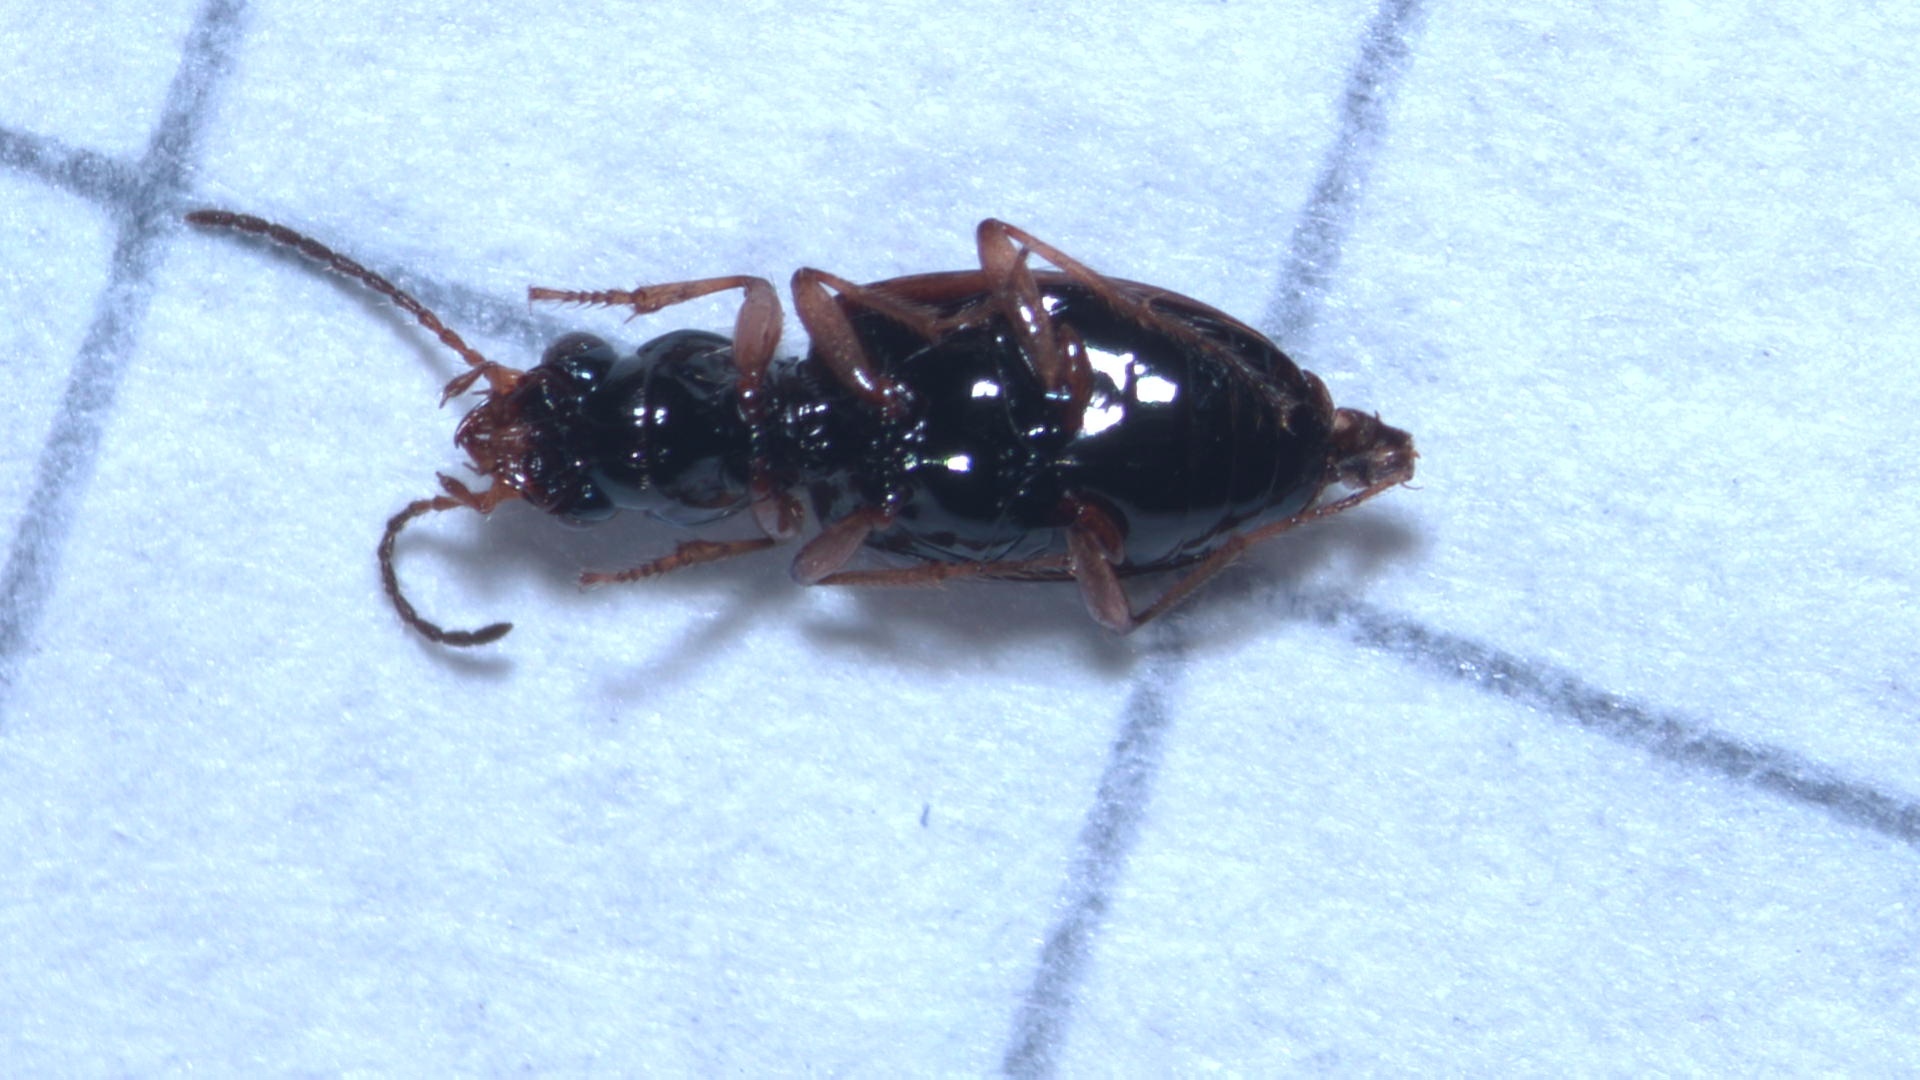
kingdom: Animalia
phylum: Arthropoda
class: Insecta
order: Coleoptera
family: Carabidae
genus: Bembidion
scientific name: Bembidion articulatum
